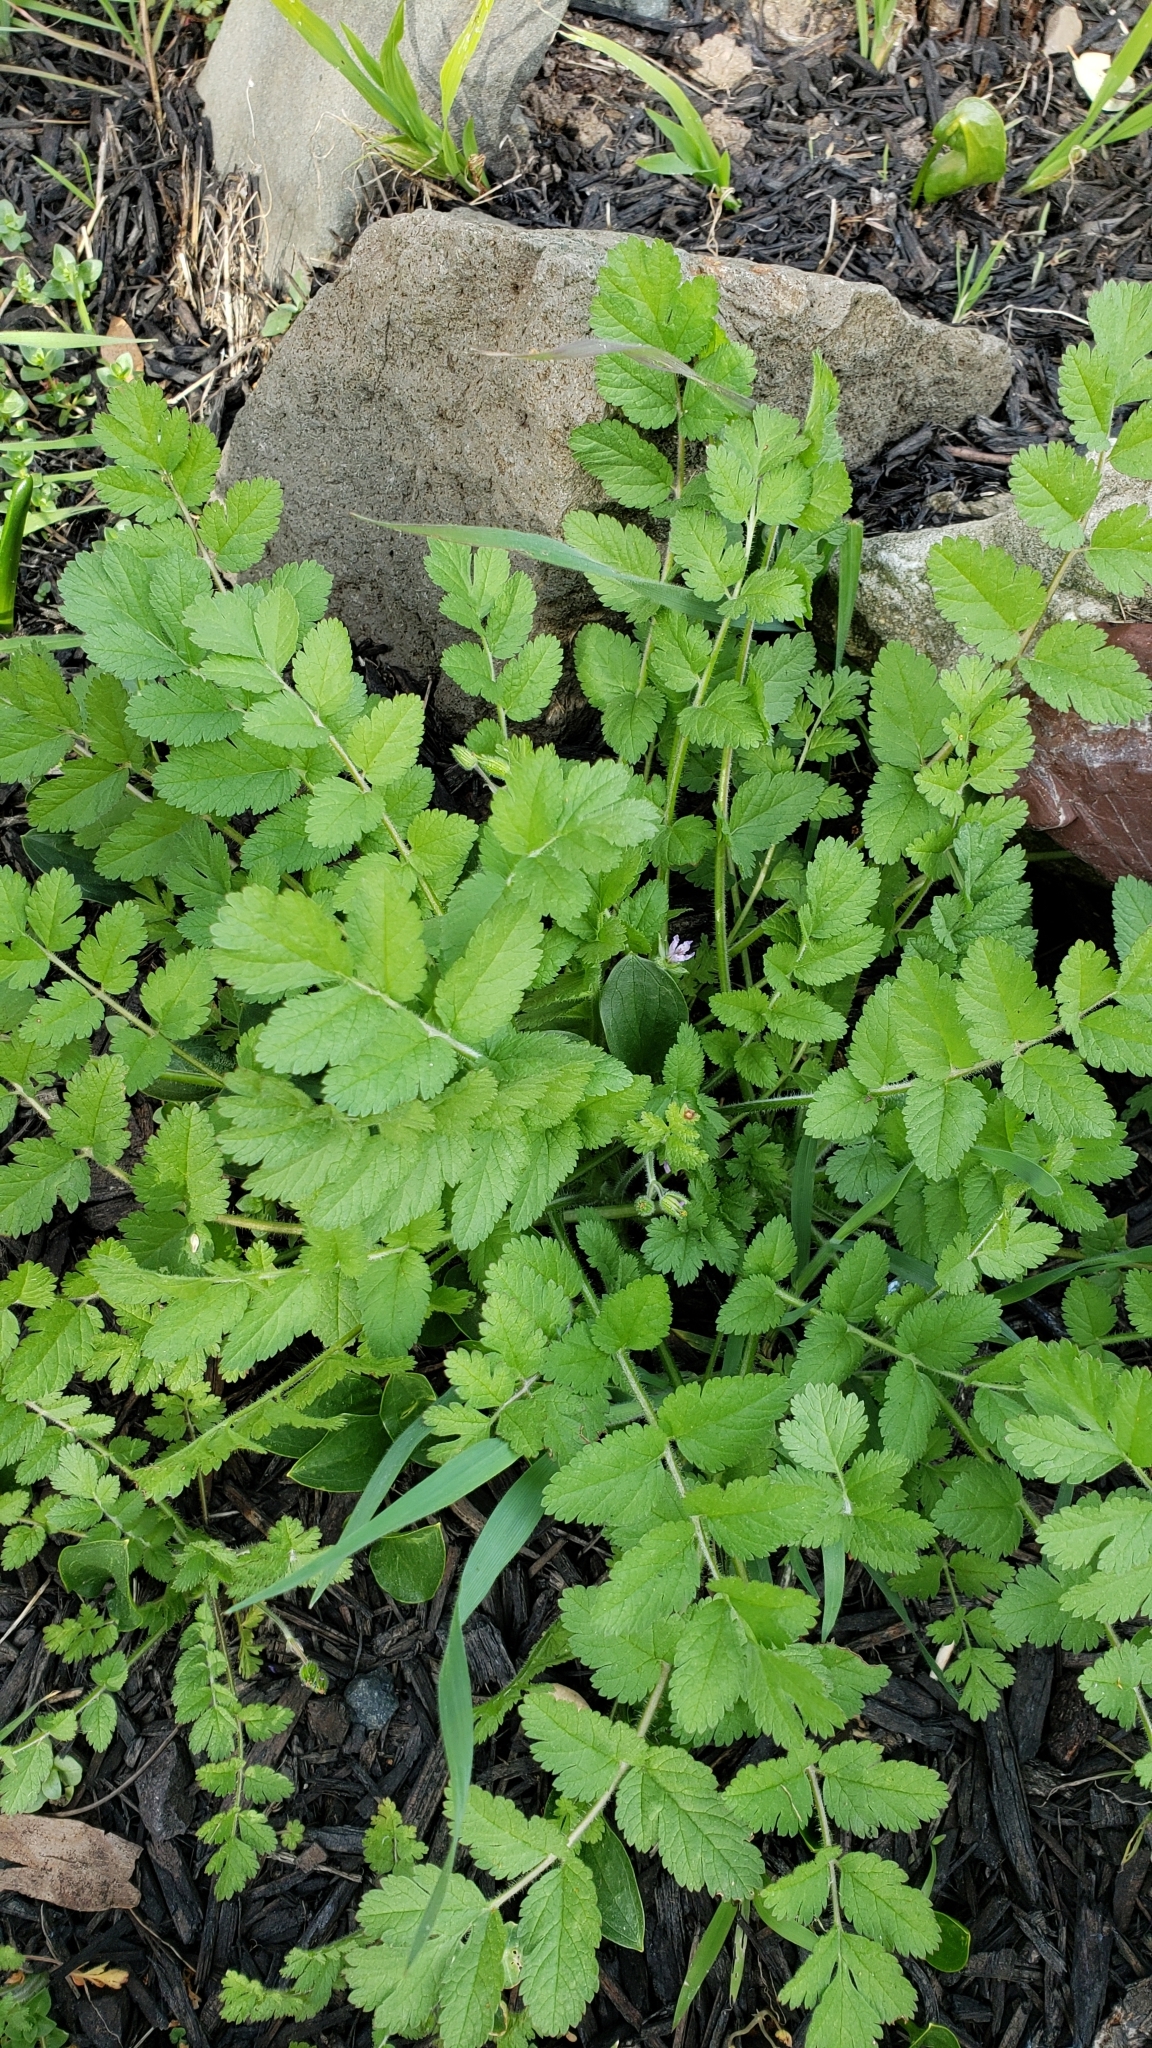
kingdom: Plantae
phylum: Tracheophyta
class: Magnoliopsida
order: Geraniales
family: Geraniaceae
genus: Erodium
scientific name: Erodium moschatum
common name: Musk stork's-bill
